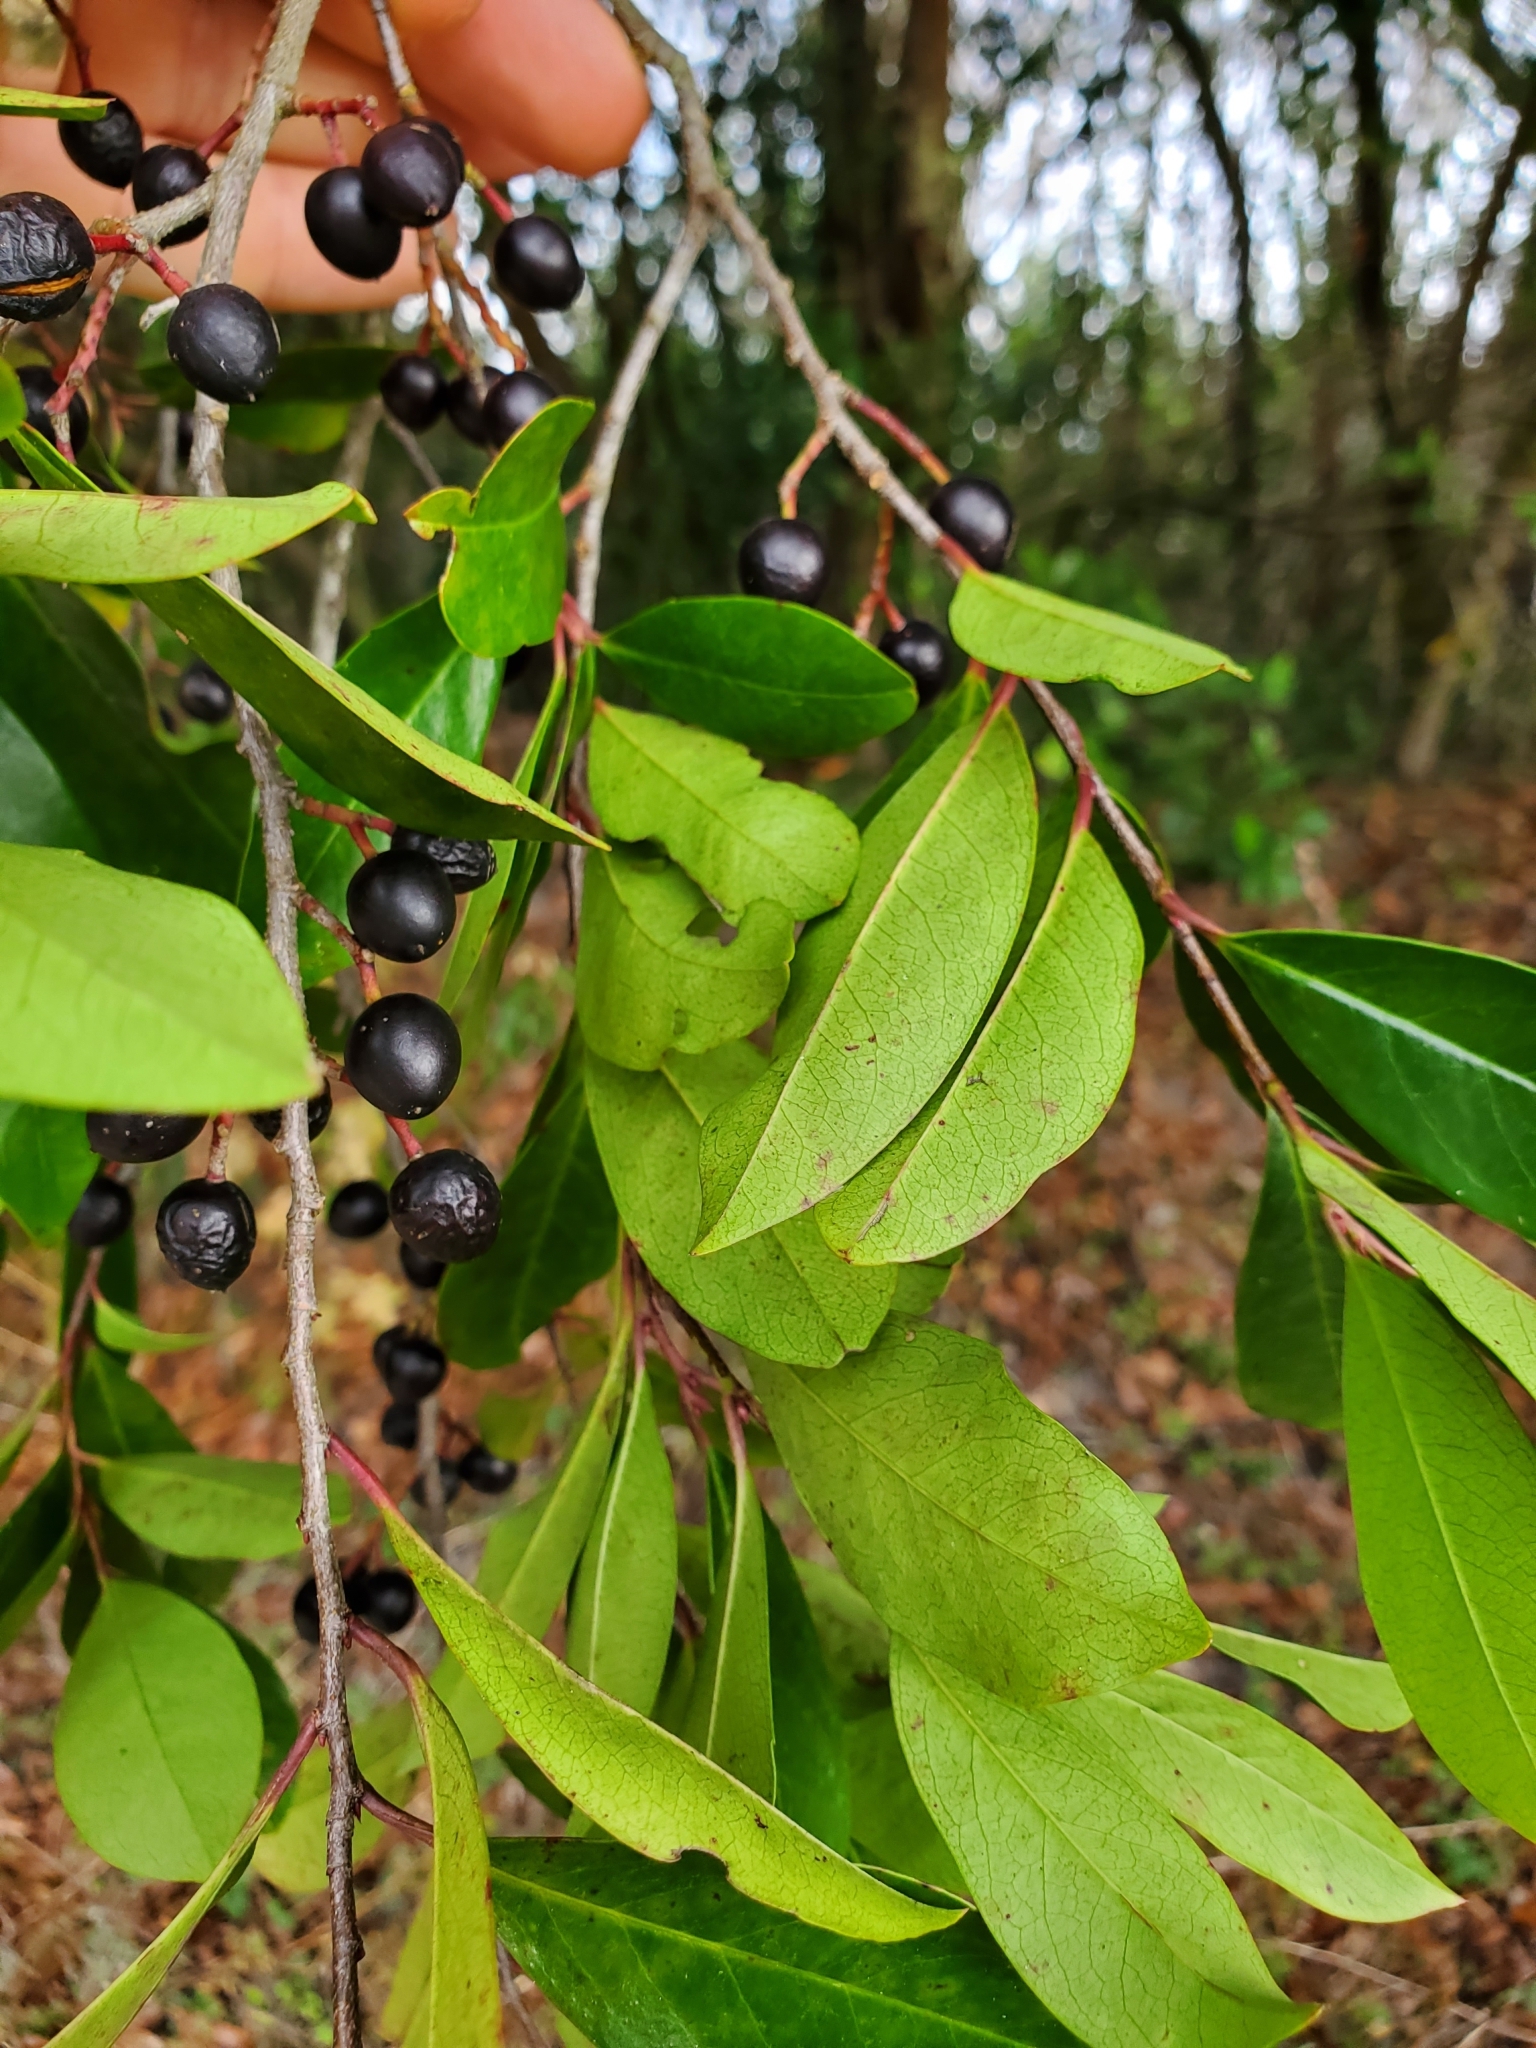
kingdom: Plantae
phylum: Tracheophyta
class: Magnoliopsida
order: Rosales
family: Rosaceae
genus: Prunus
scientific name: Prunus caroliniana
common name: Carolina laurel cherry
